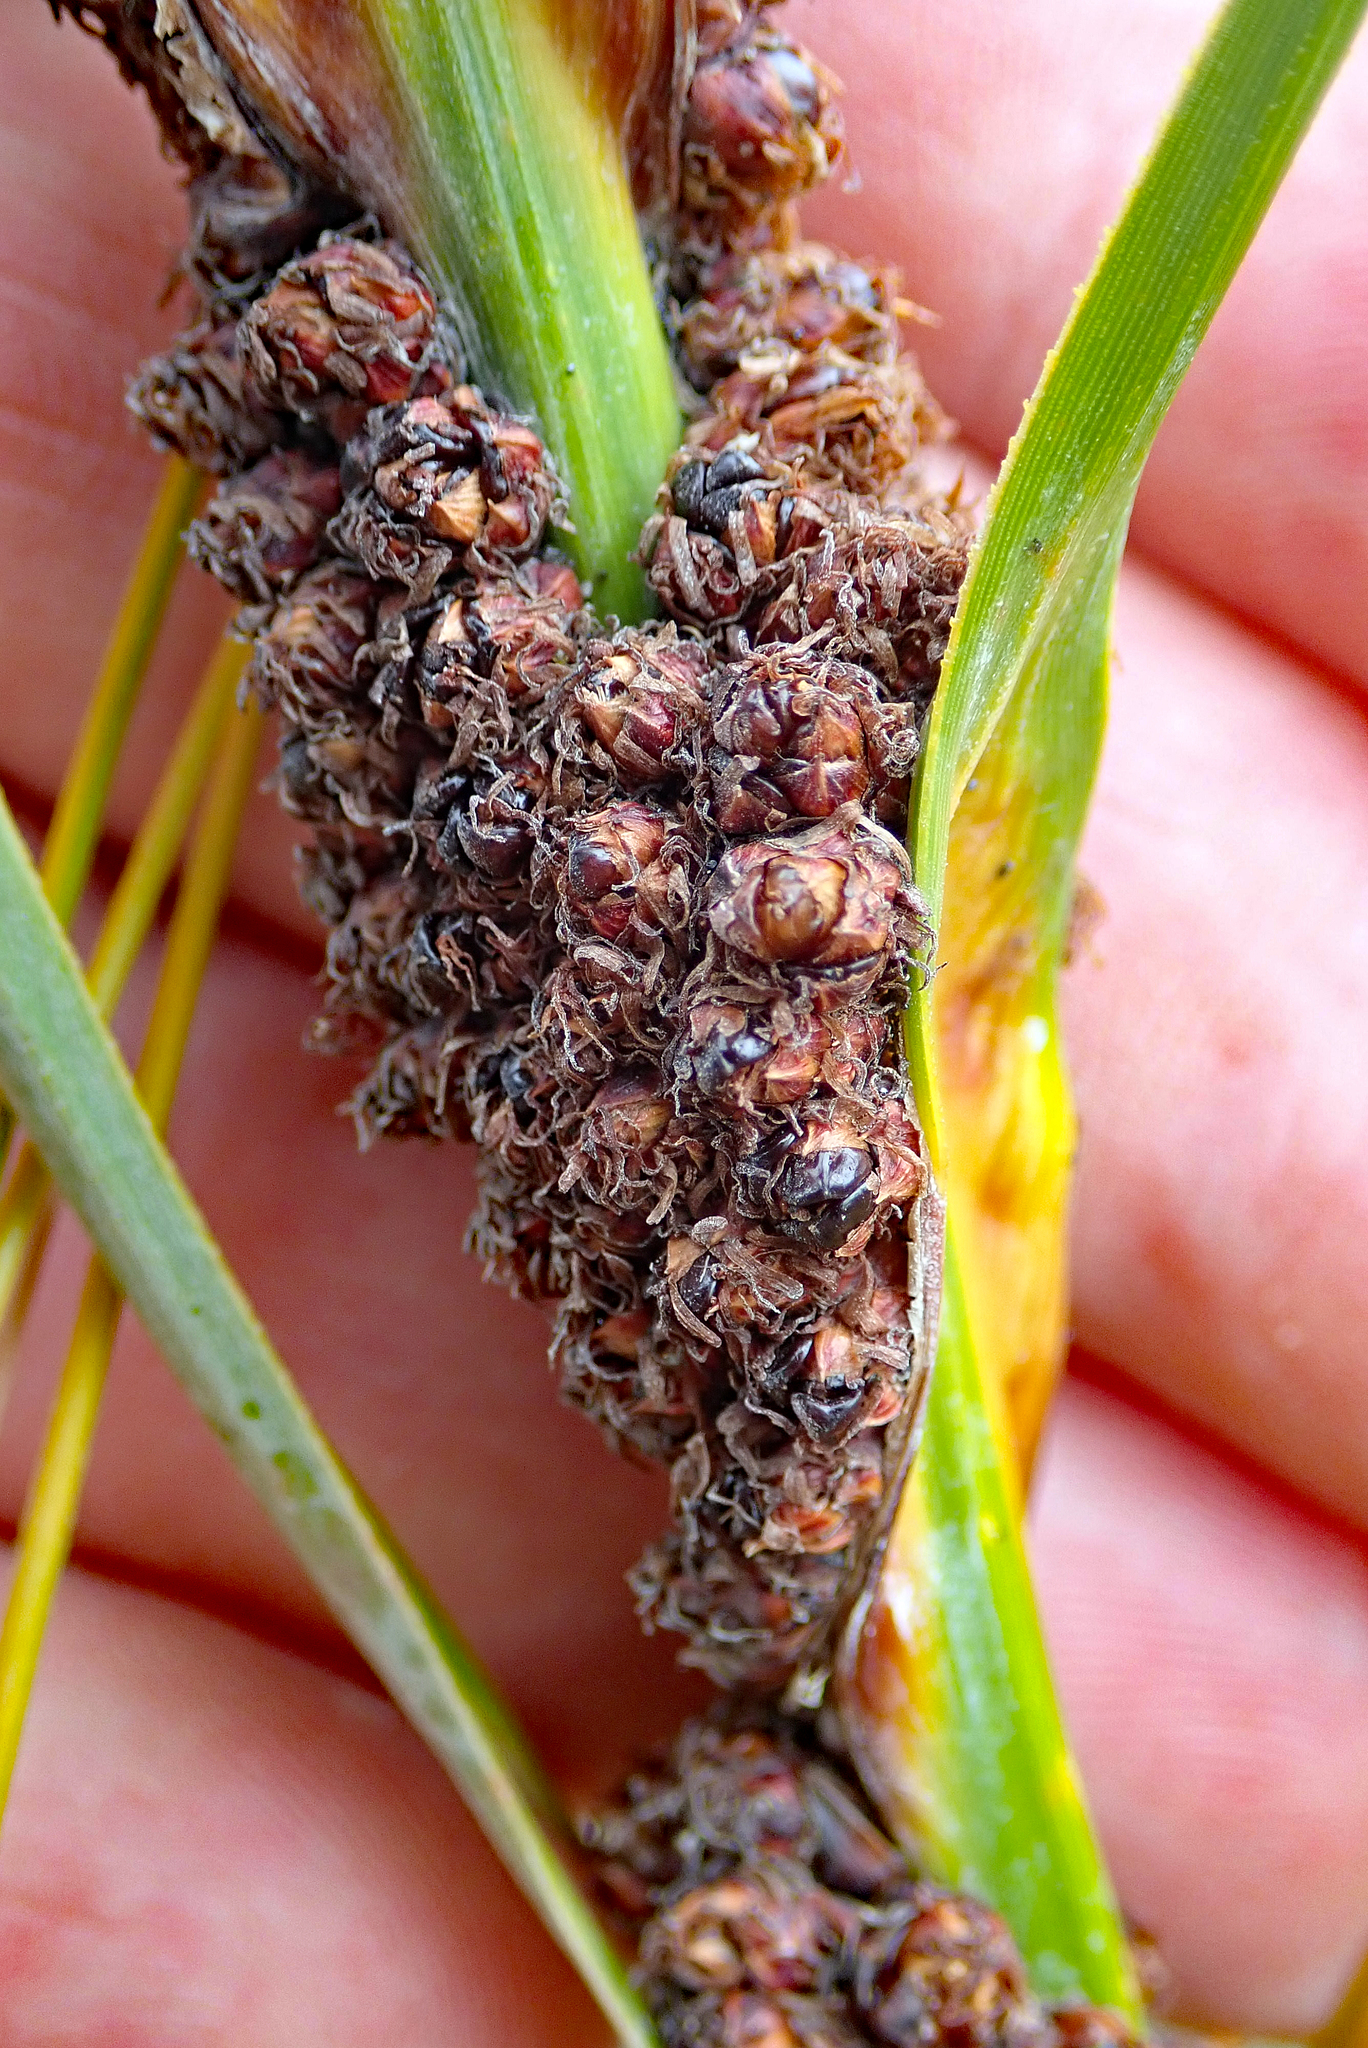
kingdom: Plantae
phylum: Tracheophyta
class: Liliopsida
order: Poales
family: Cyperaceae
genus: Ficinia
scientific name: Ficinia spiralis
